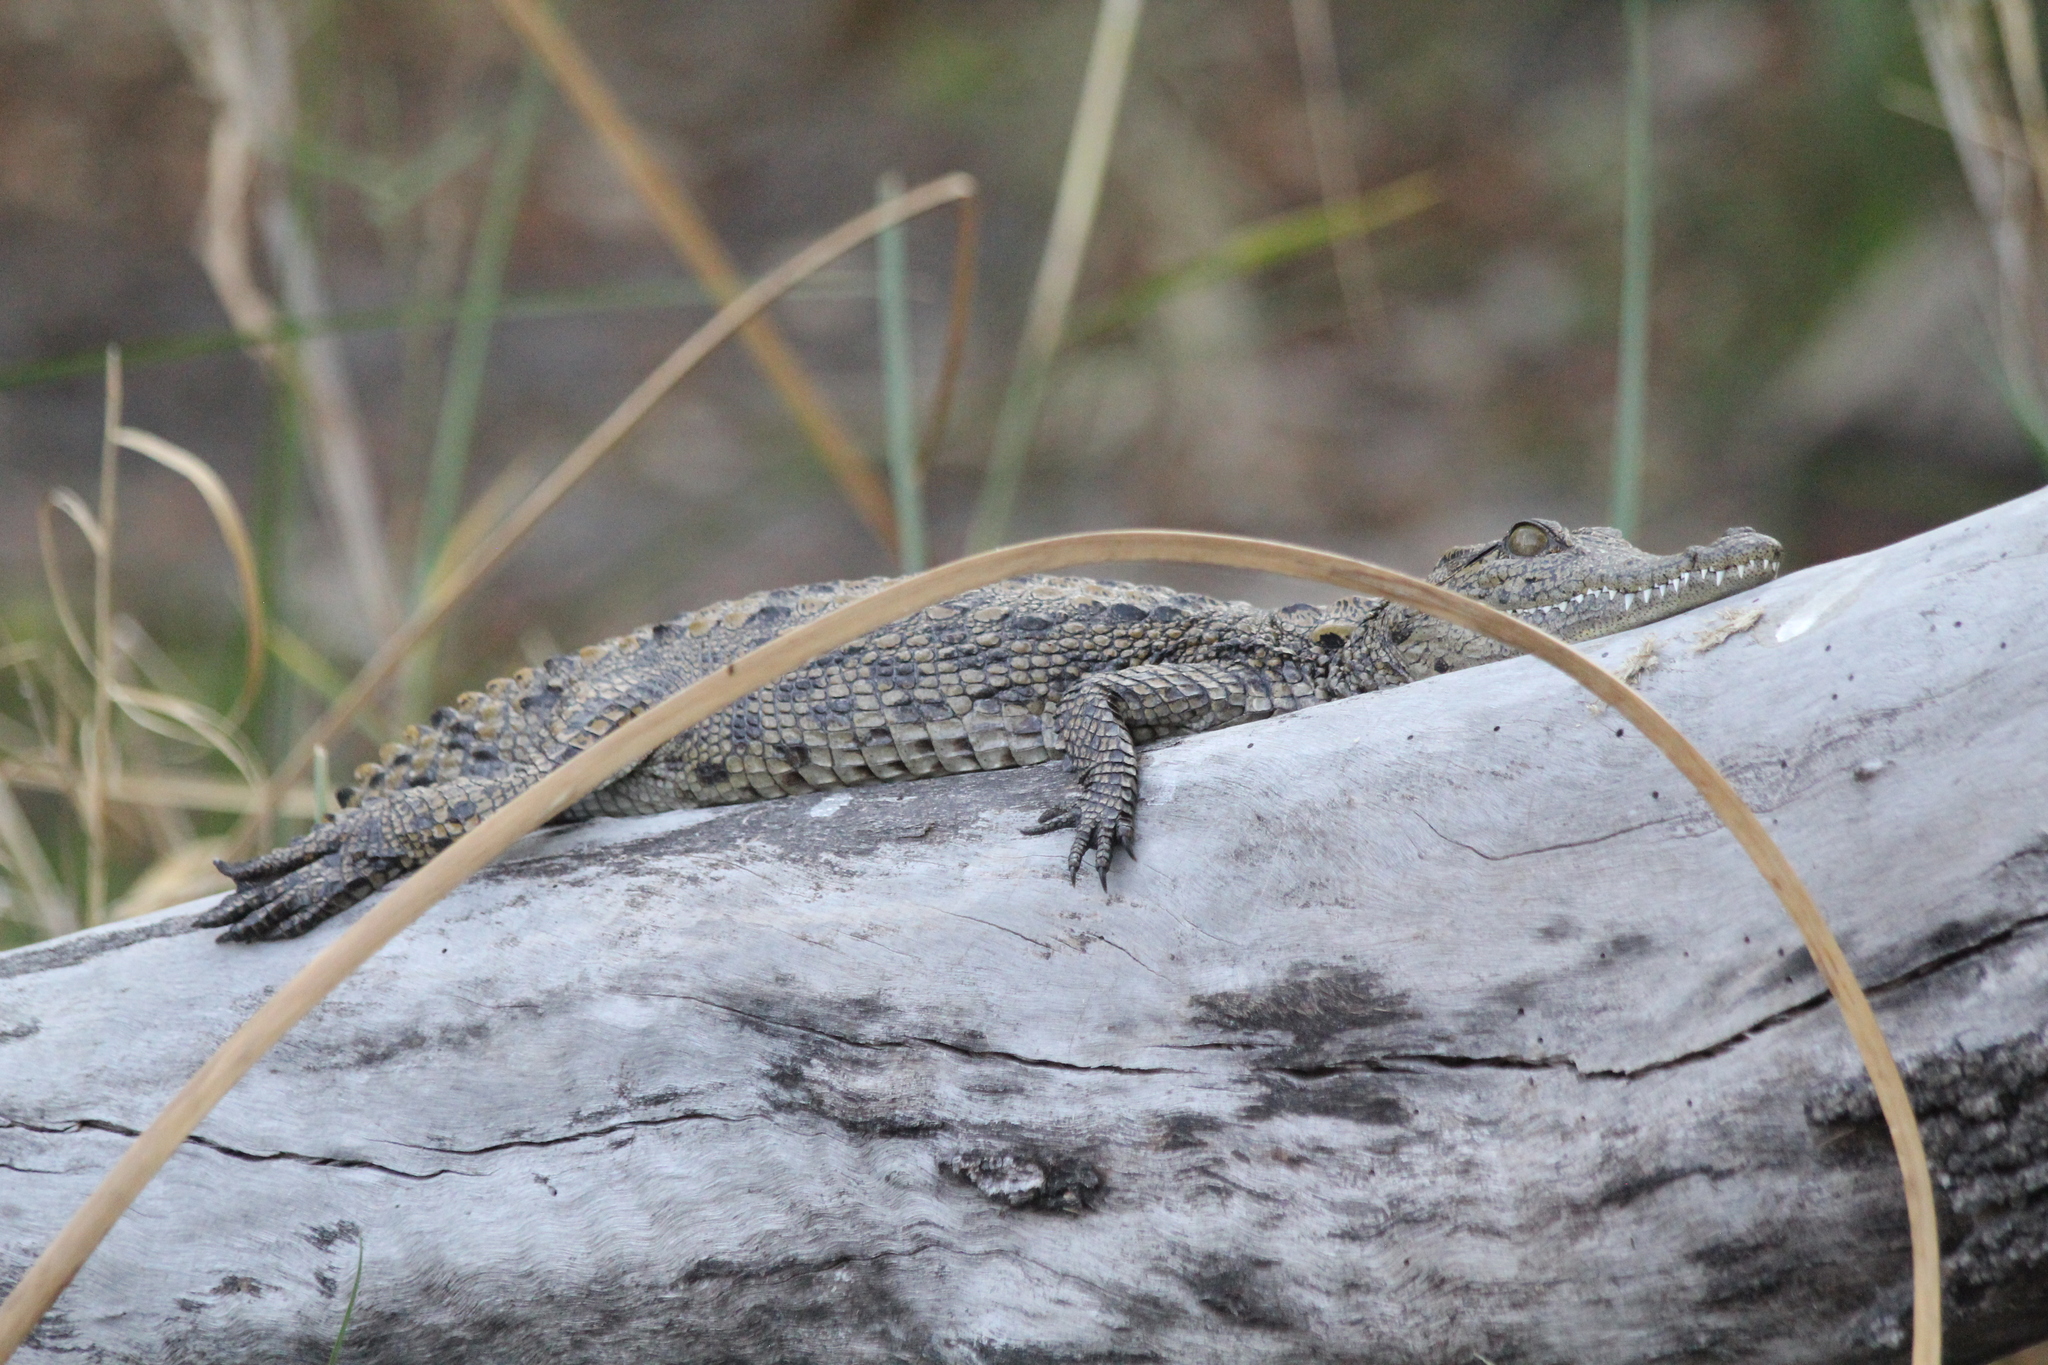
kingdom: Animalia
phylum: Chordata
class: Crocodylia
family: Crocodylidae
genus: Crocodylus
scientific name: Crocodylus niloticus
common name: Nile crocodile
